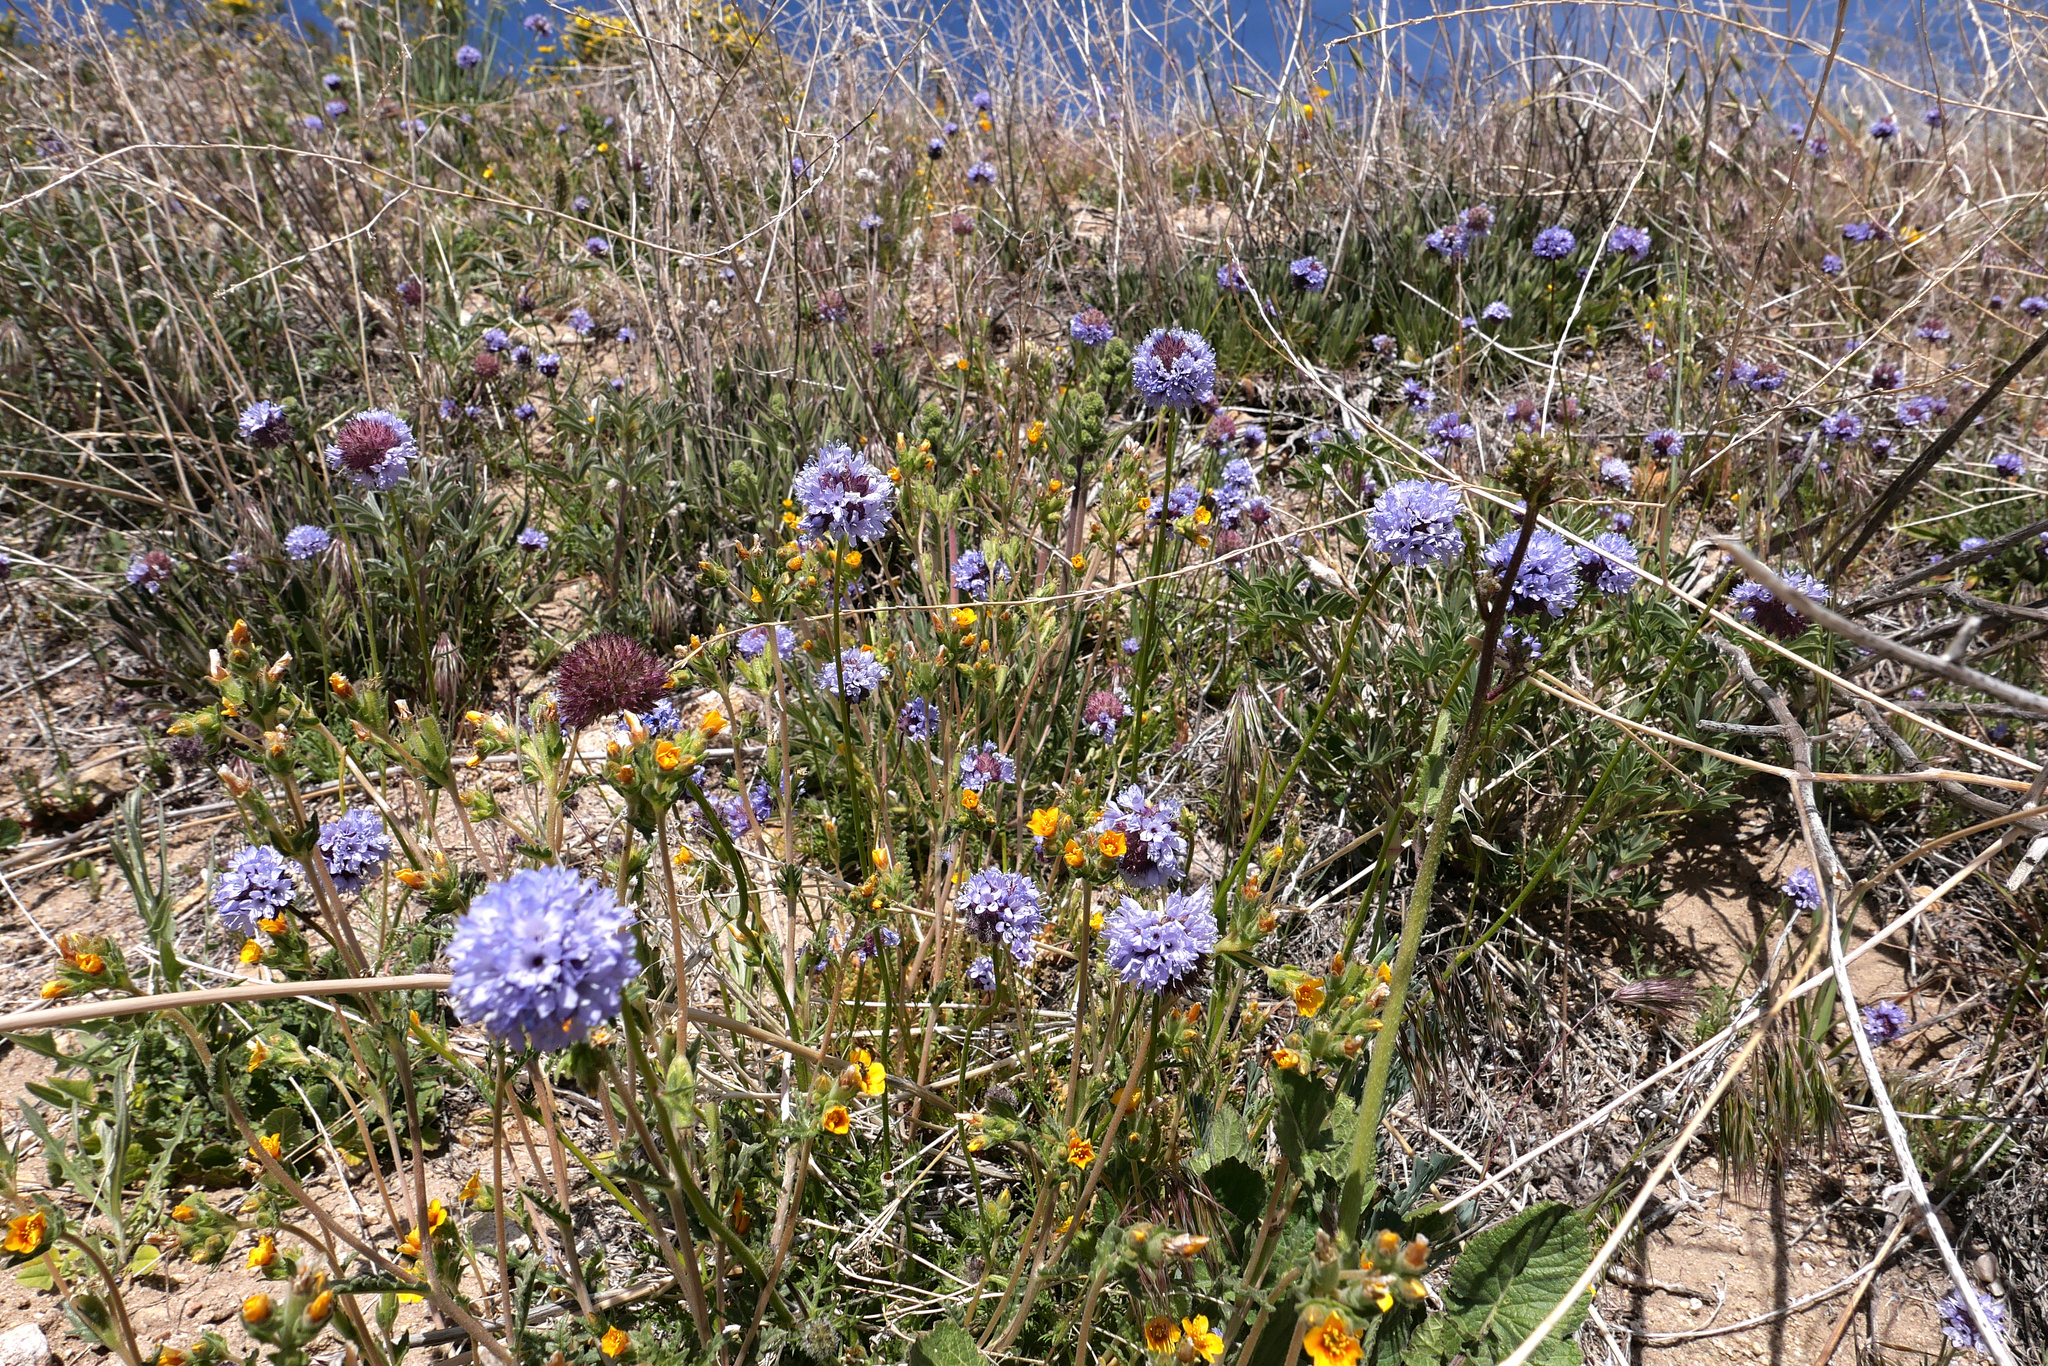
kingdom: Plantae
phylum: Tracheophyta
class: Magnoliopsida
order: Ericales
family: Polemoniaceae
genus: Gilia
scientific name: Gilia capitata
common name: Bluehead gilia
